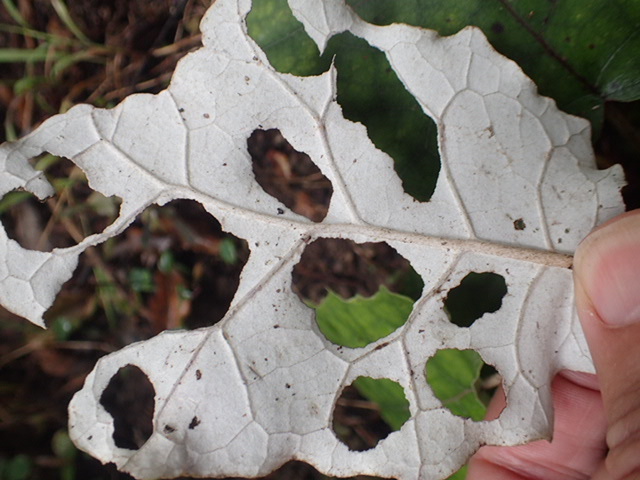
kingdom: Plantae
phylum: Tracheophyta
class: Magnoliopsida
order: Asterales
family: Asteraceae
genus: Brachyglottis
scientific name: Brachyglottis repanda
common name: Hedge ragwort
